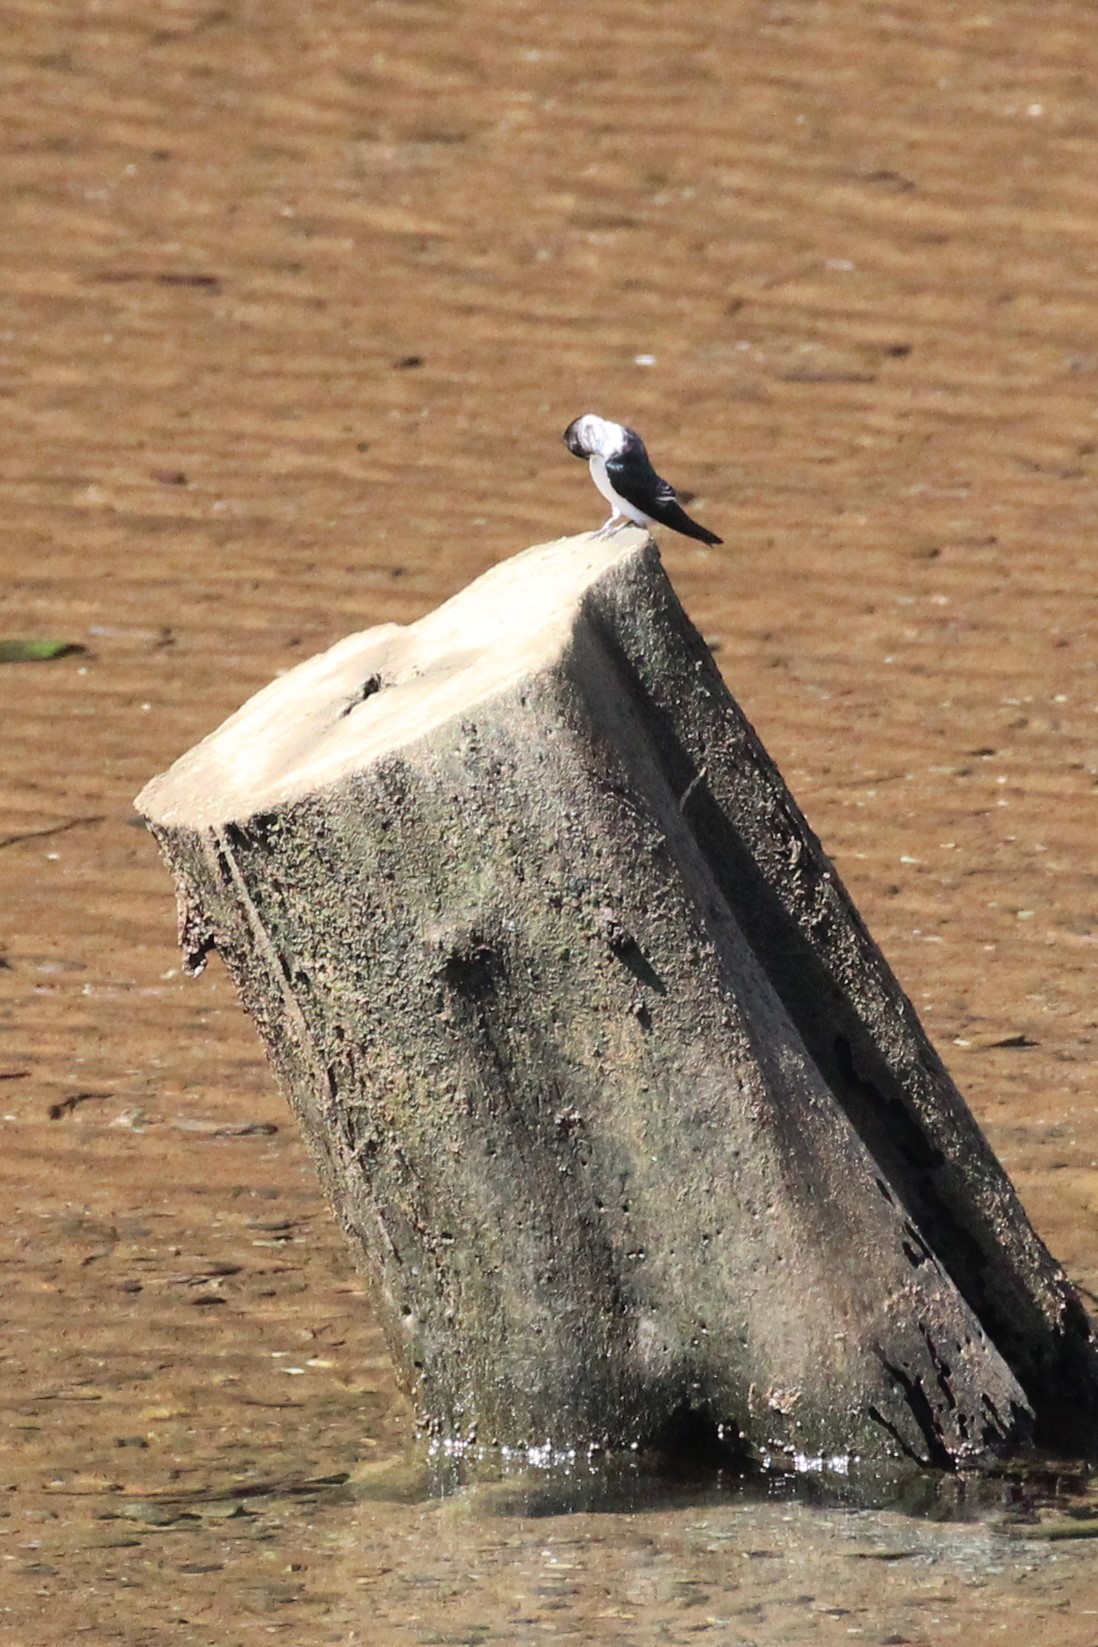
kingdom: Animalia
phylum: Chordata
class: Aves
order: Passeriformes
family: Hirundinidae
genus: Tachycineta
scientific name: Tachycineta albilinea
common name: Mangrove swallow
